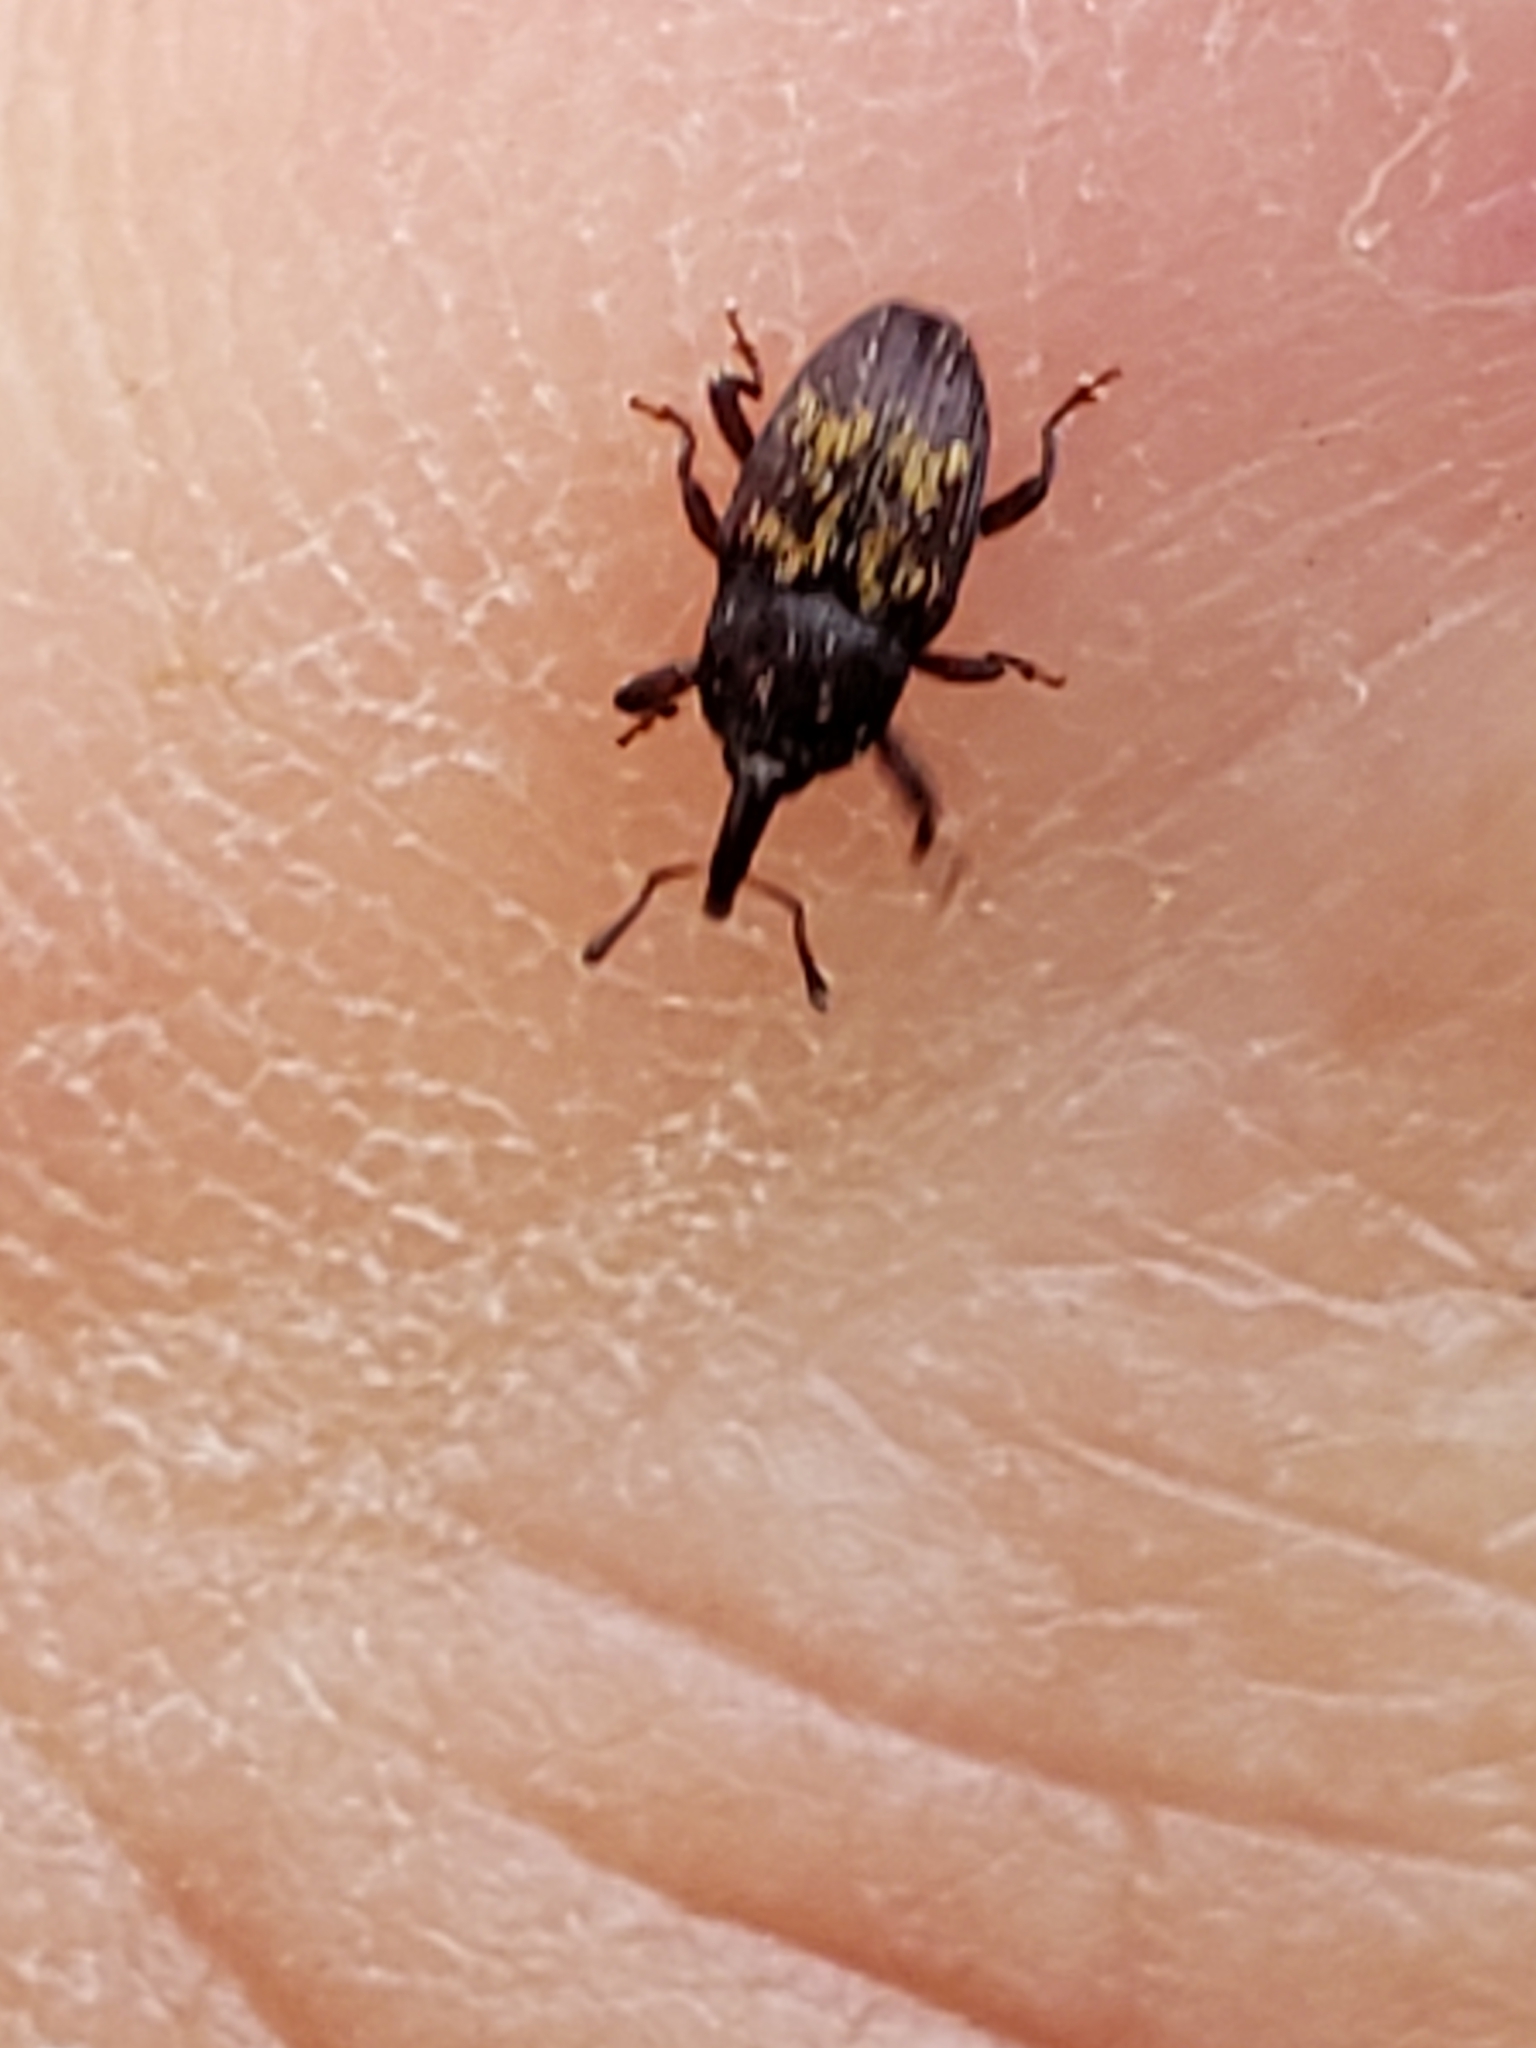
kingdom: Animalia
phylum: Arthropoda
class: Insecta
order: Coleoptera
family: Curculionidae
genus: Glyptobaris
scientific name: Glyptobaris lecontei
